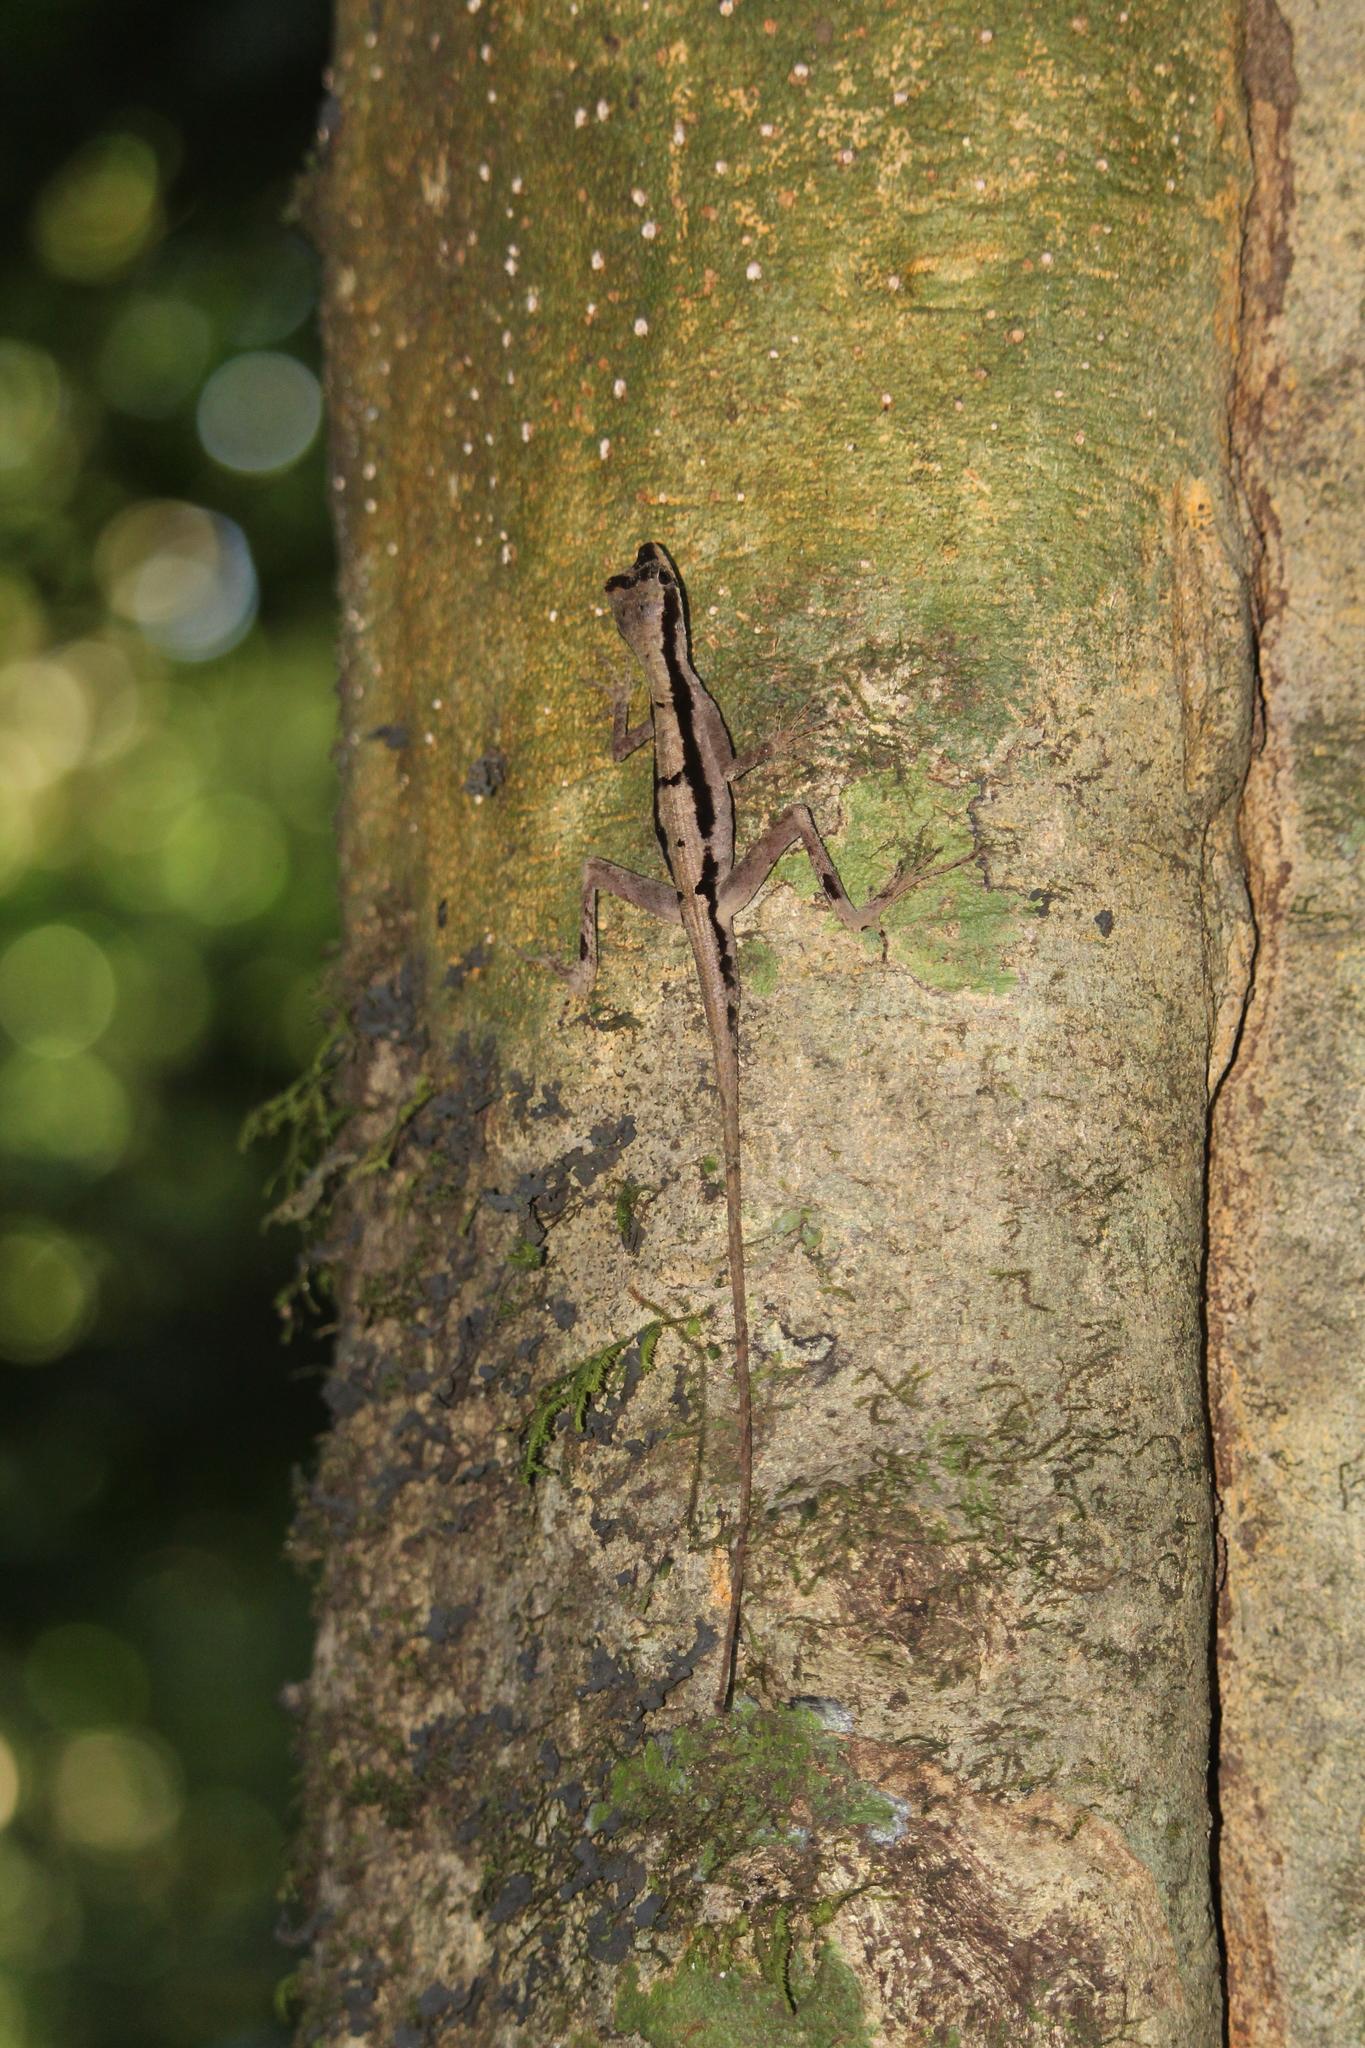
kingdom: Animalia
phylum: Chordata
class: Squamata
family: Dactyloidae
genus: Anolis
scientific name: Anolis chrysolepis
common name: Goldenscale anole
